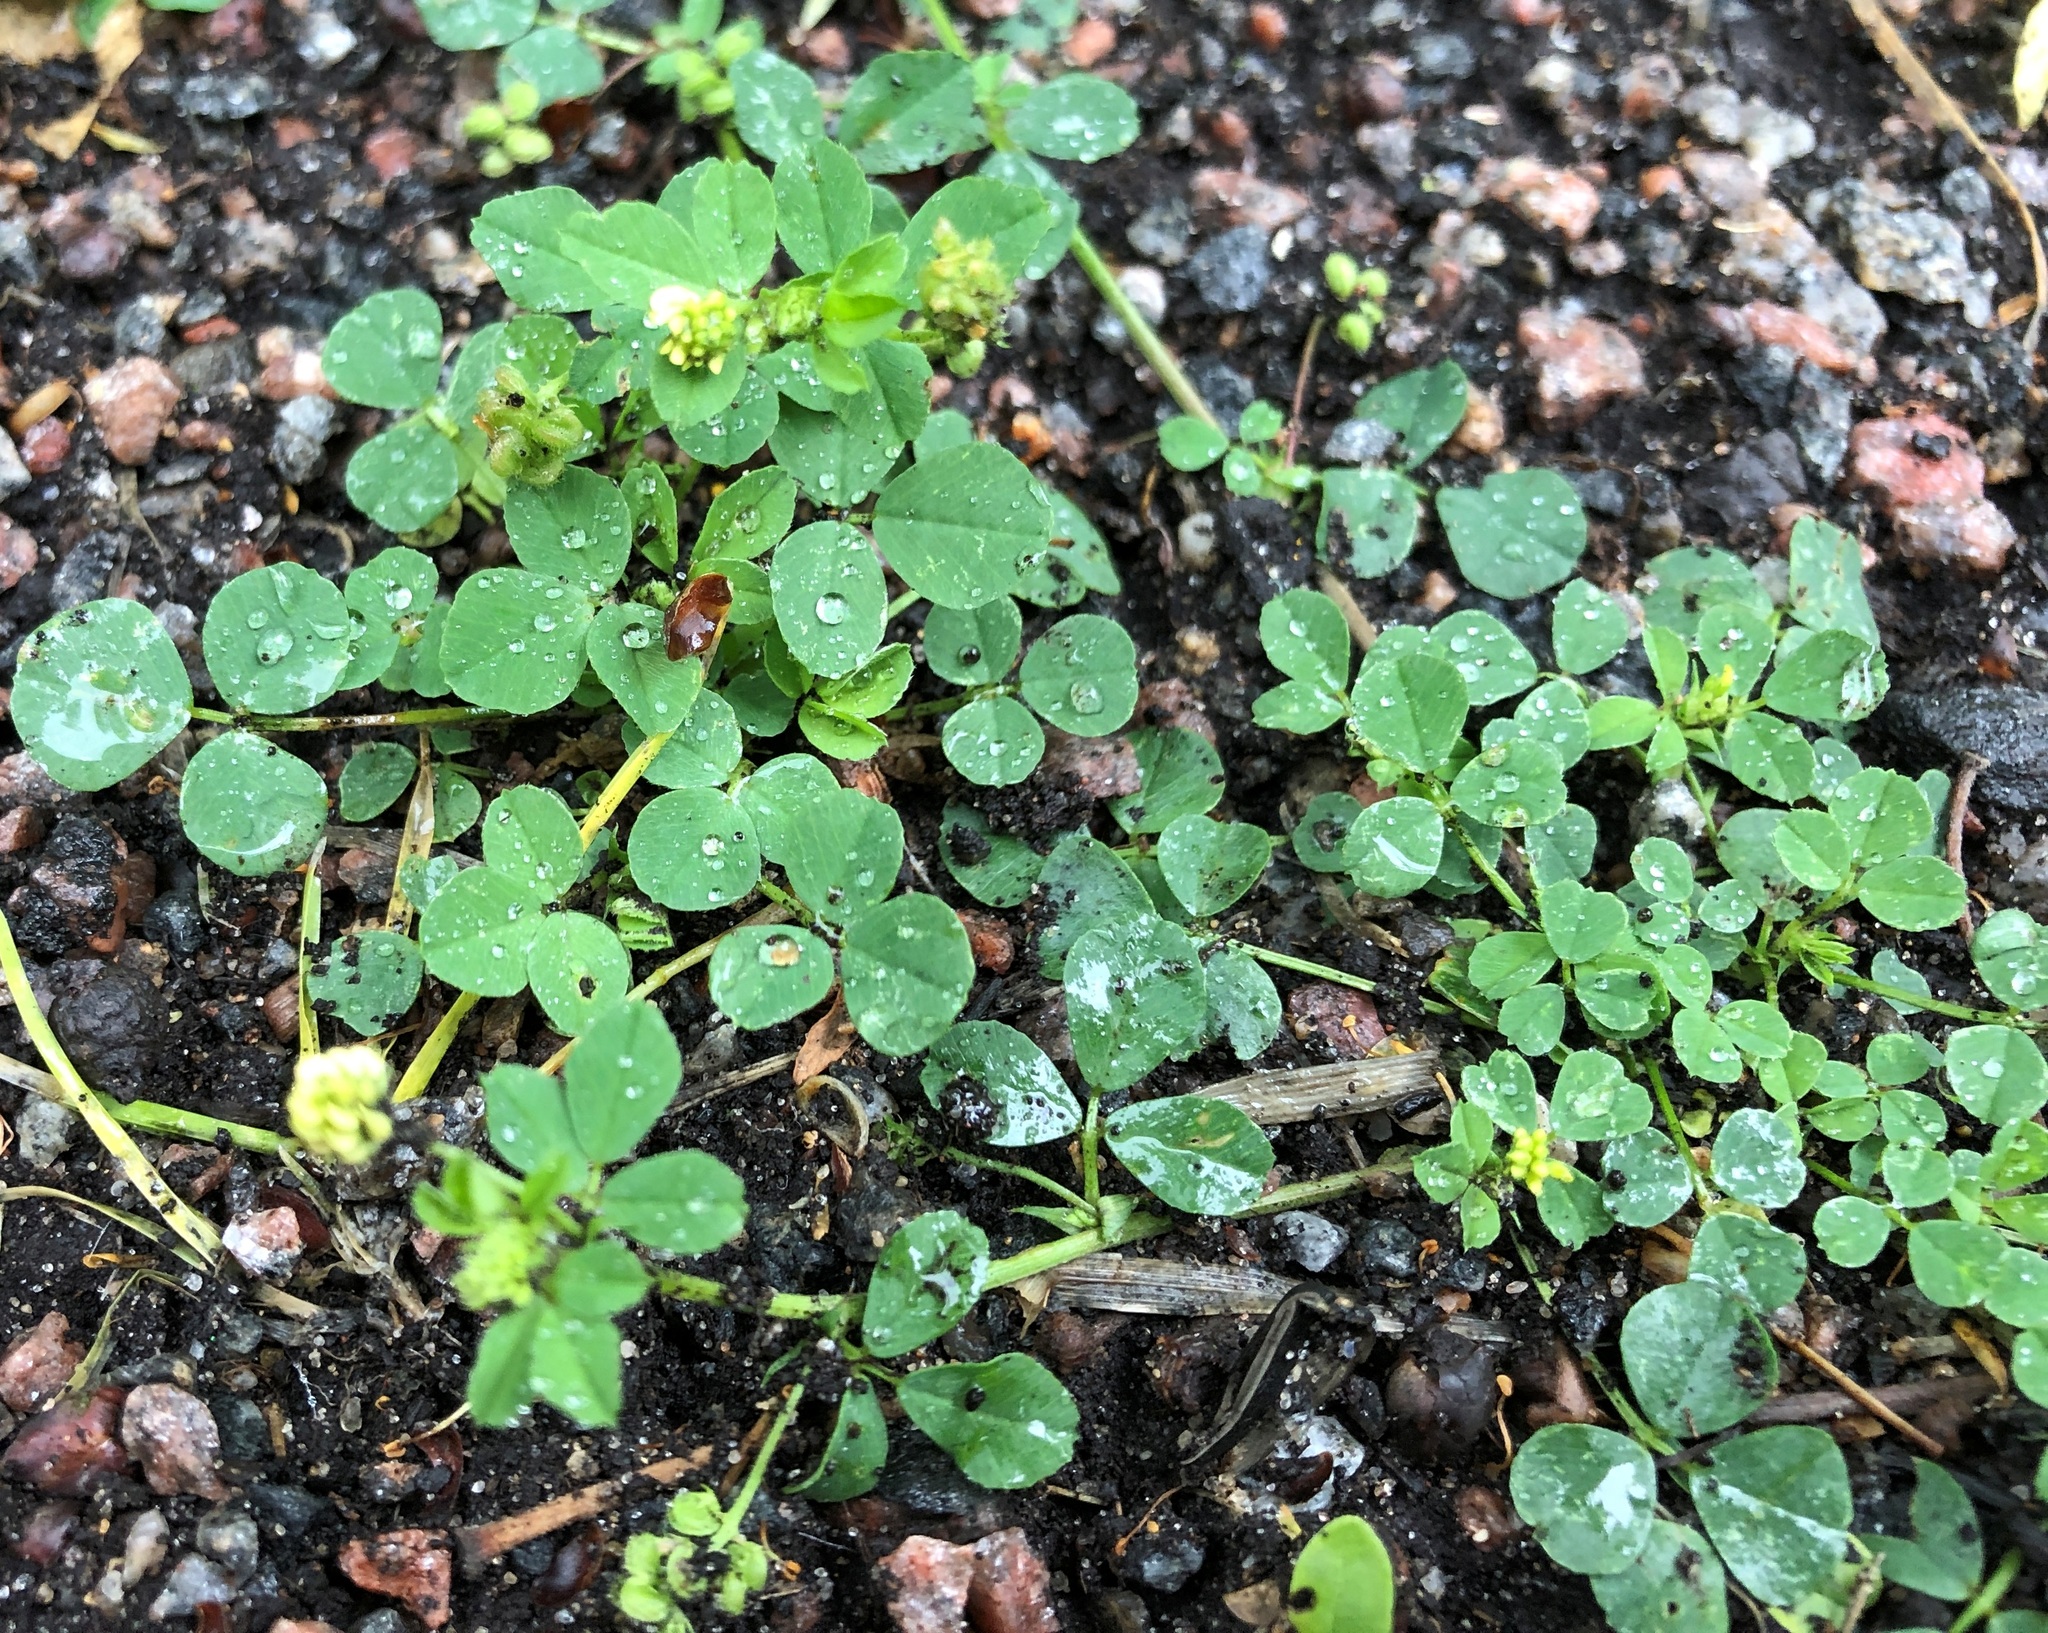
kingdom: Plantae
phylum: Tracheophyta
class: Magnoliopsida
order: Fabales
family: Fabaceae
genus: Medicago
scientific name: Medicago lupulina
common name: Black medick
